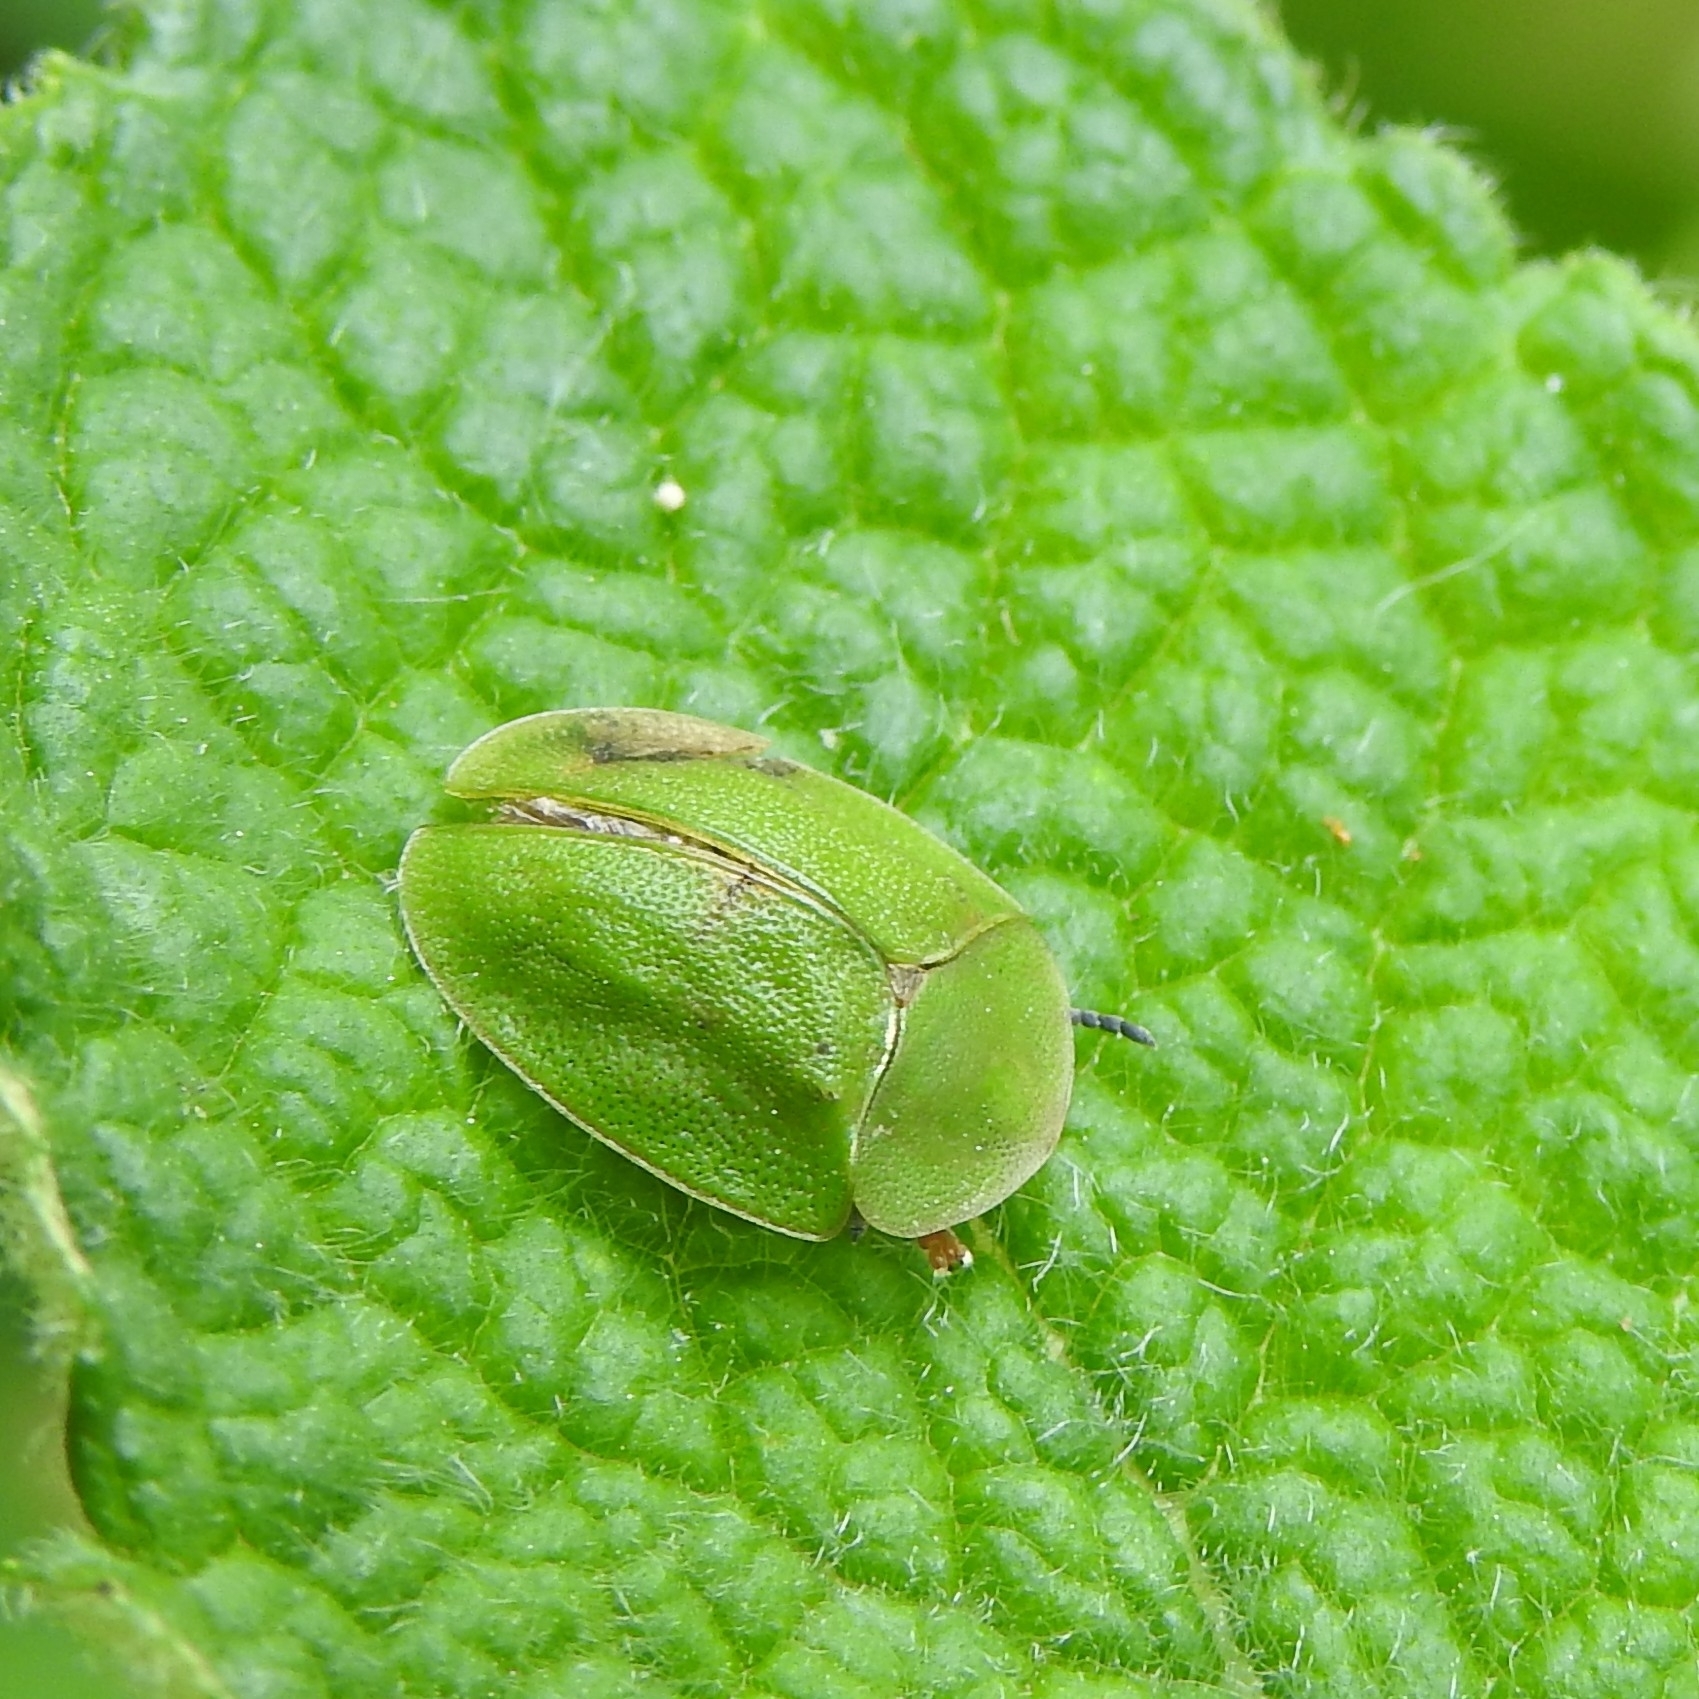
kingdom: Animalia
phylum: Arthropoda
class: Insecta
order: Coleoptera
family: Chrysomelidae
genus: Cassida
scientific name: Cassida viridis
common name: Green tortoise beetle
